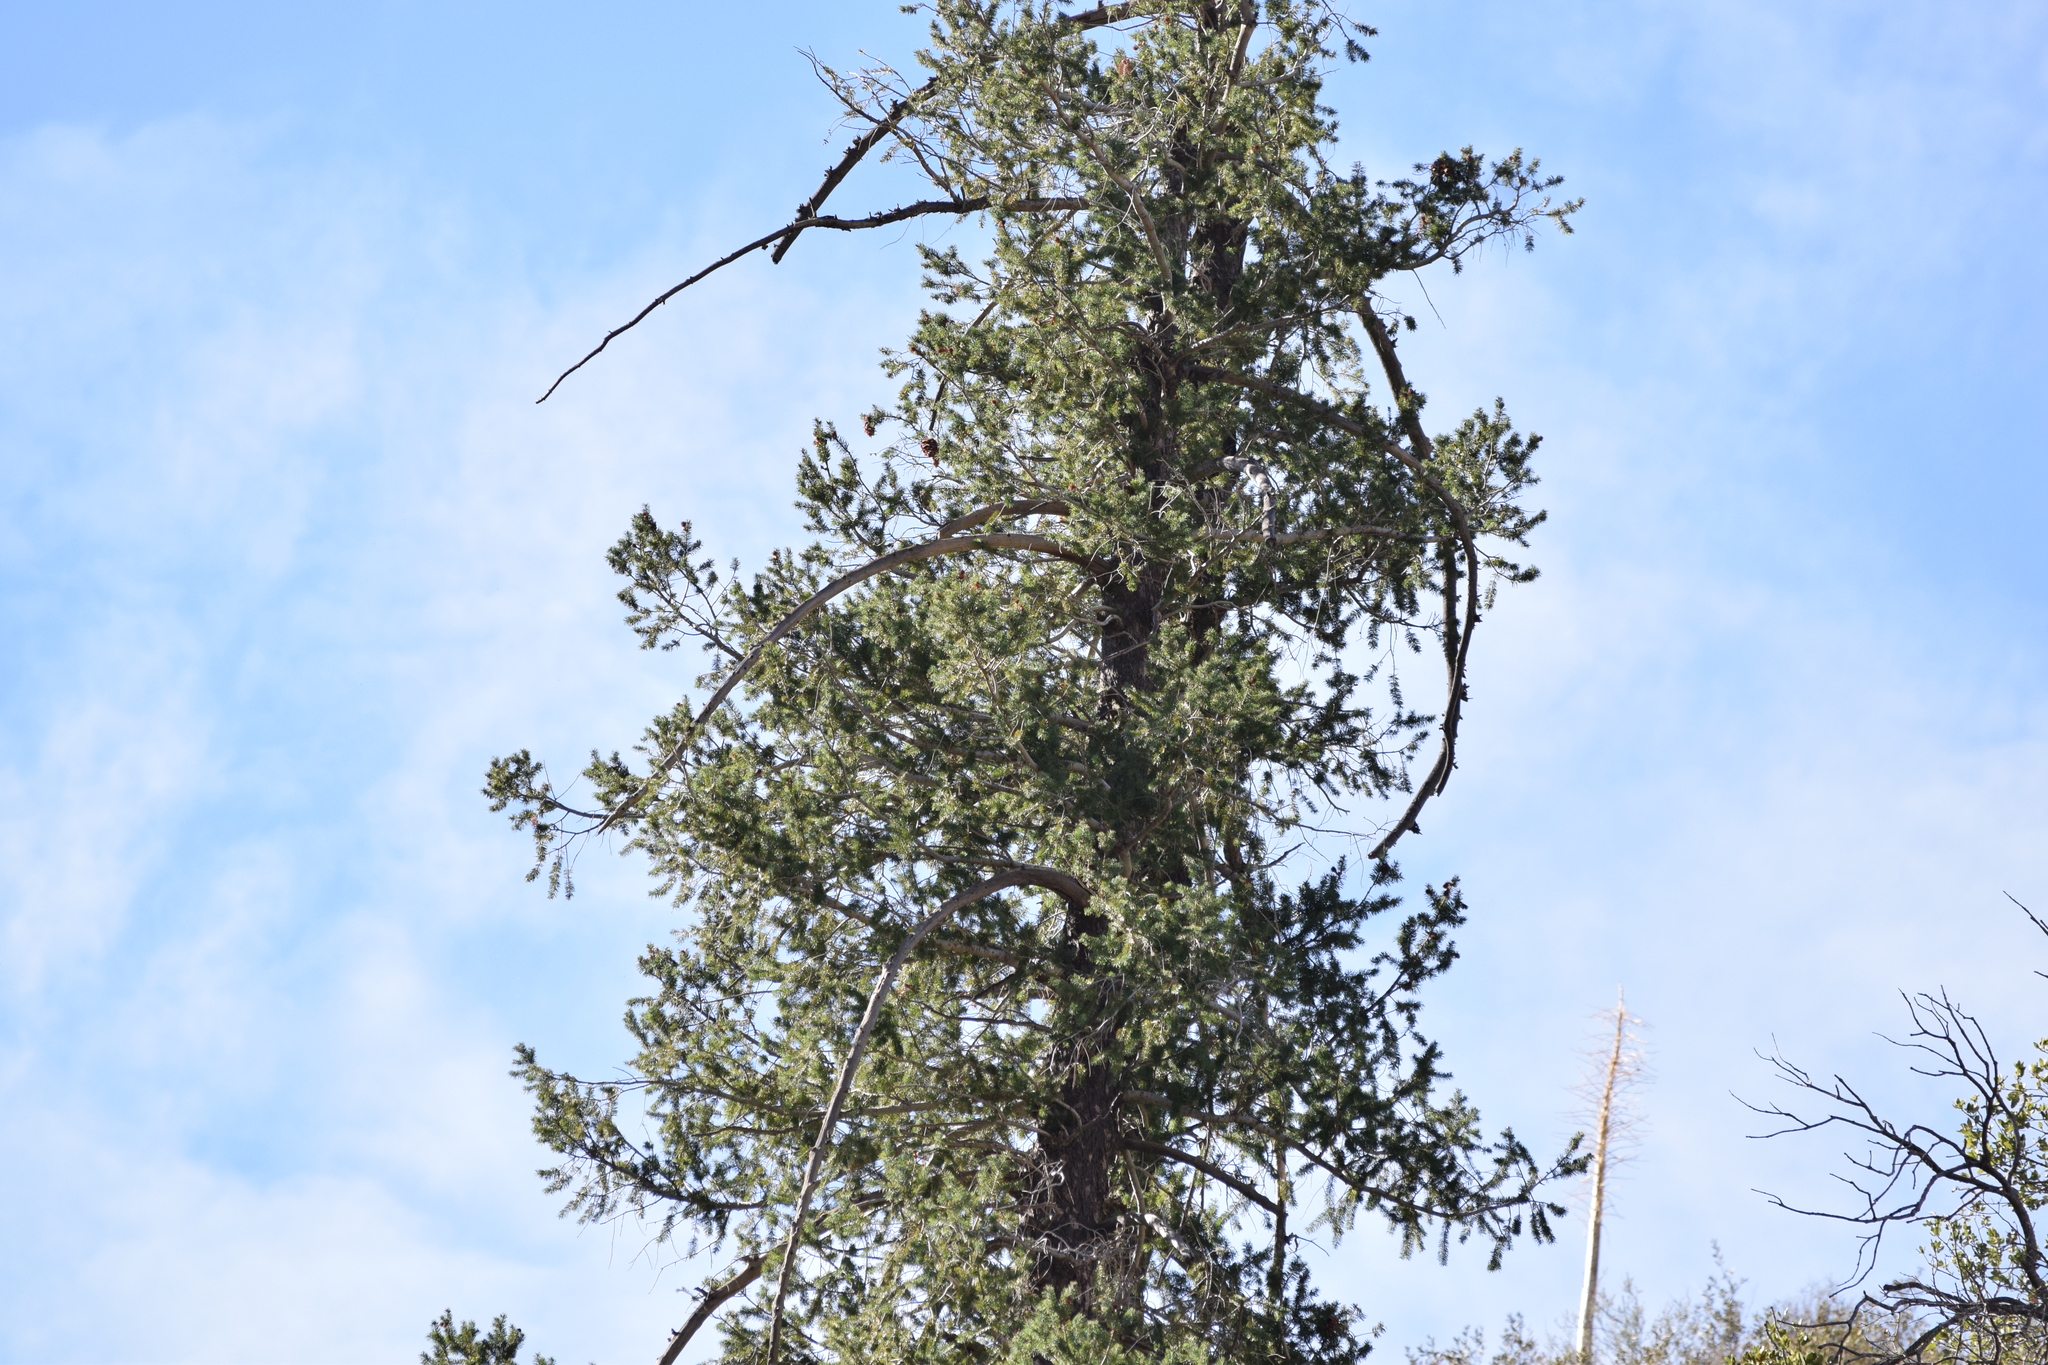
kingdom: Plantae
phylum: Tracheophyta
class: Pinopsida
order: Pinales
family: Pinaceae
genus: Pseudotsuga
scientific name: Pseudotsuga macrocarpa
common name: Big-cone douglas-fir
